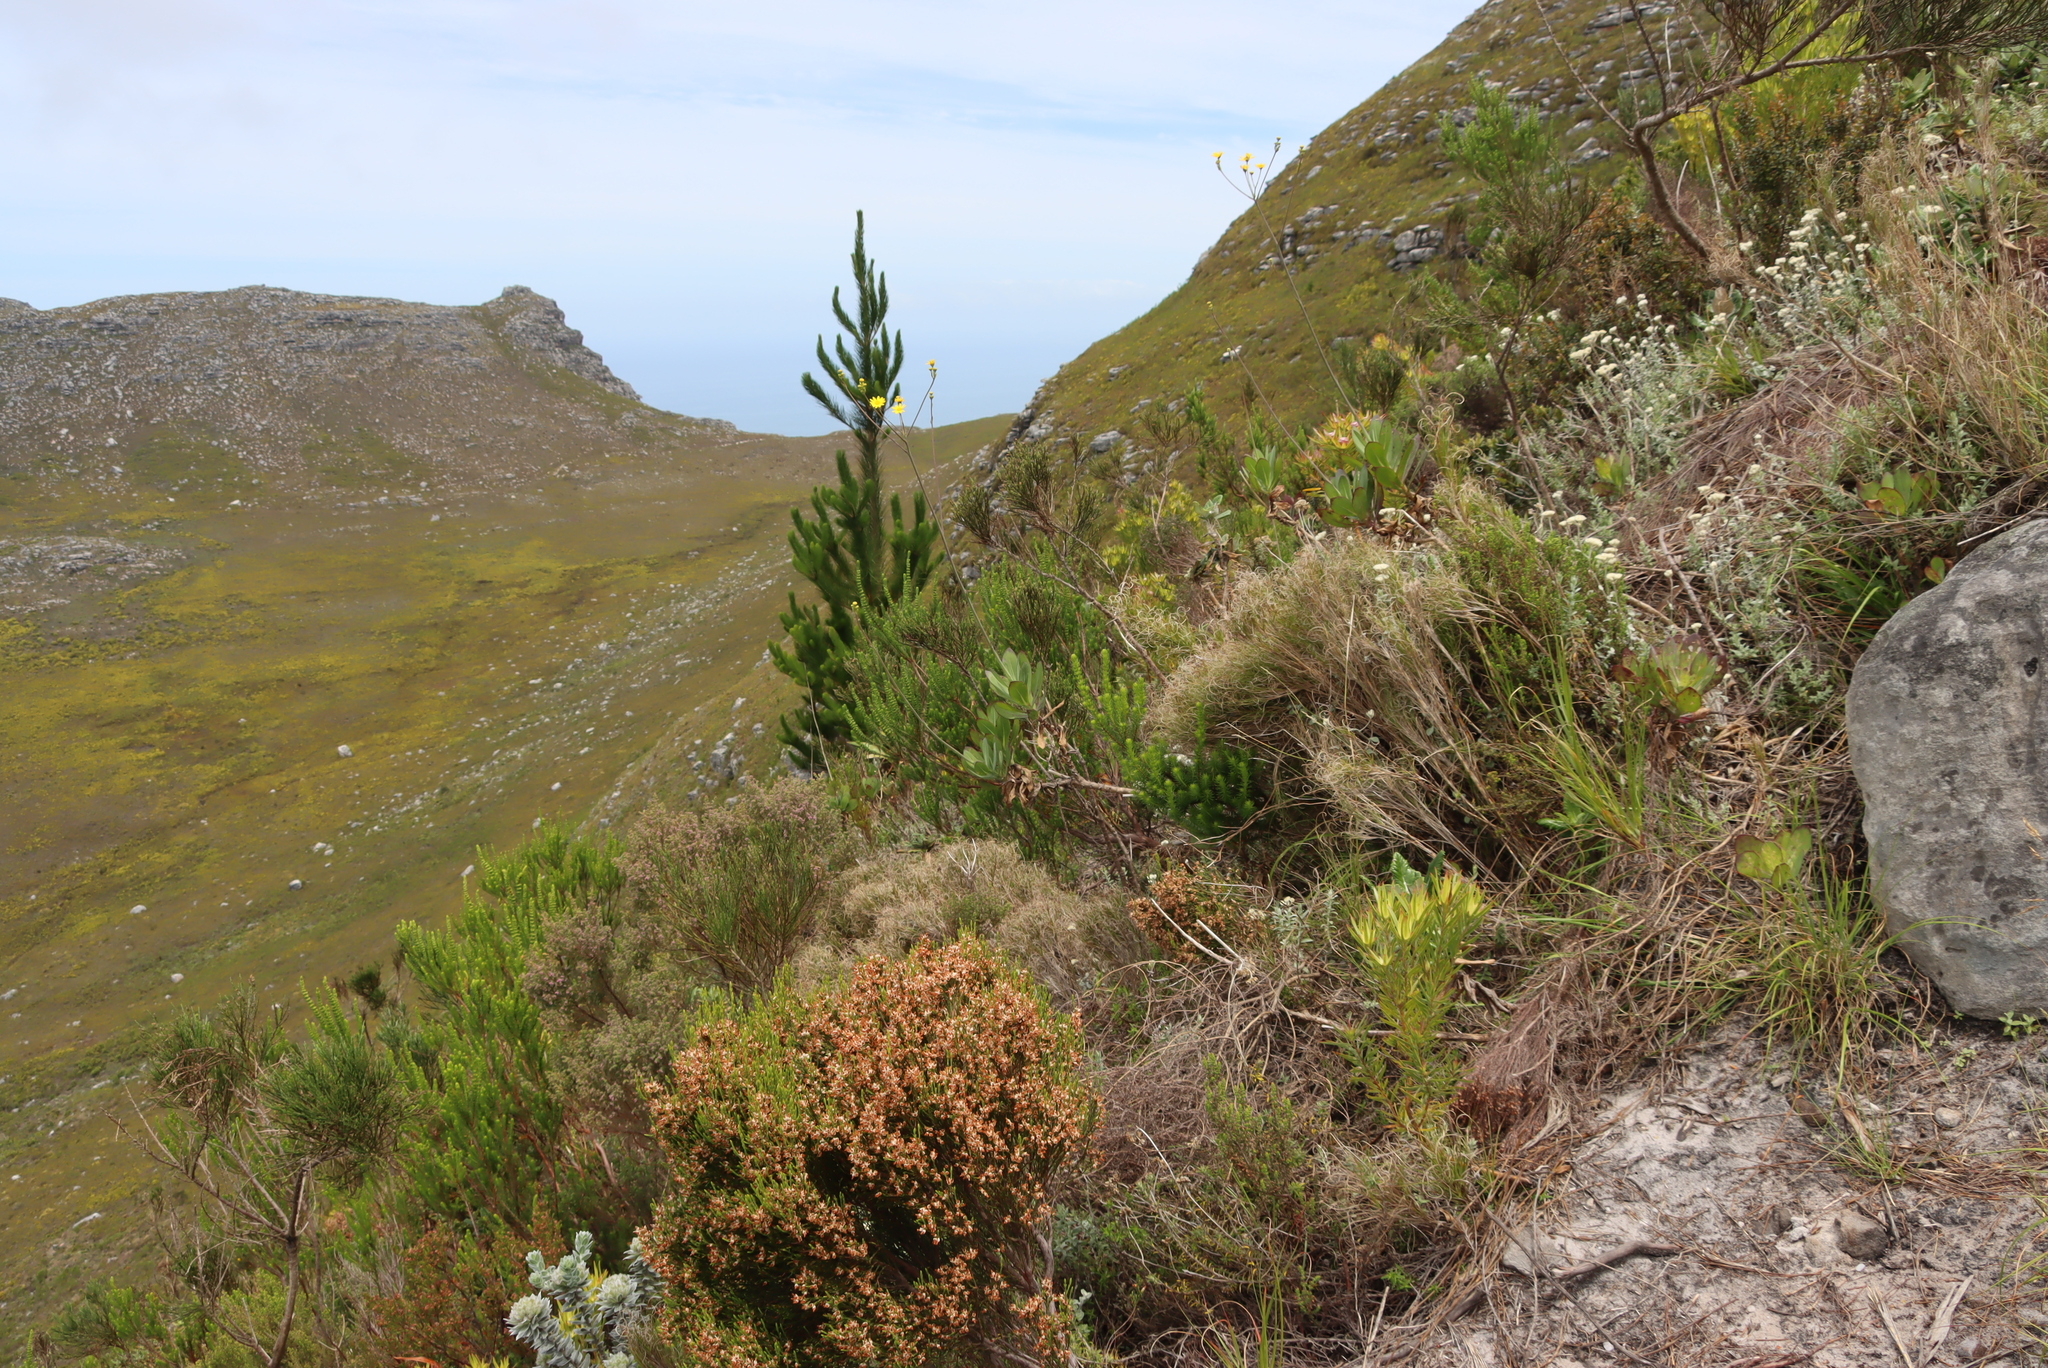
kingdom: Plantae
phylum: Tracheophyta
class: Magnoliopsida
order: Asterales
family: Asteraceae
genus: Othonna
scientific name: Othonna quinquedentata
